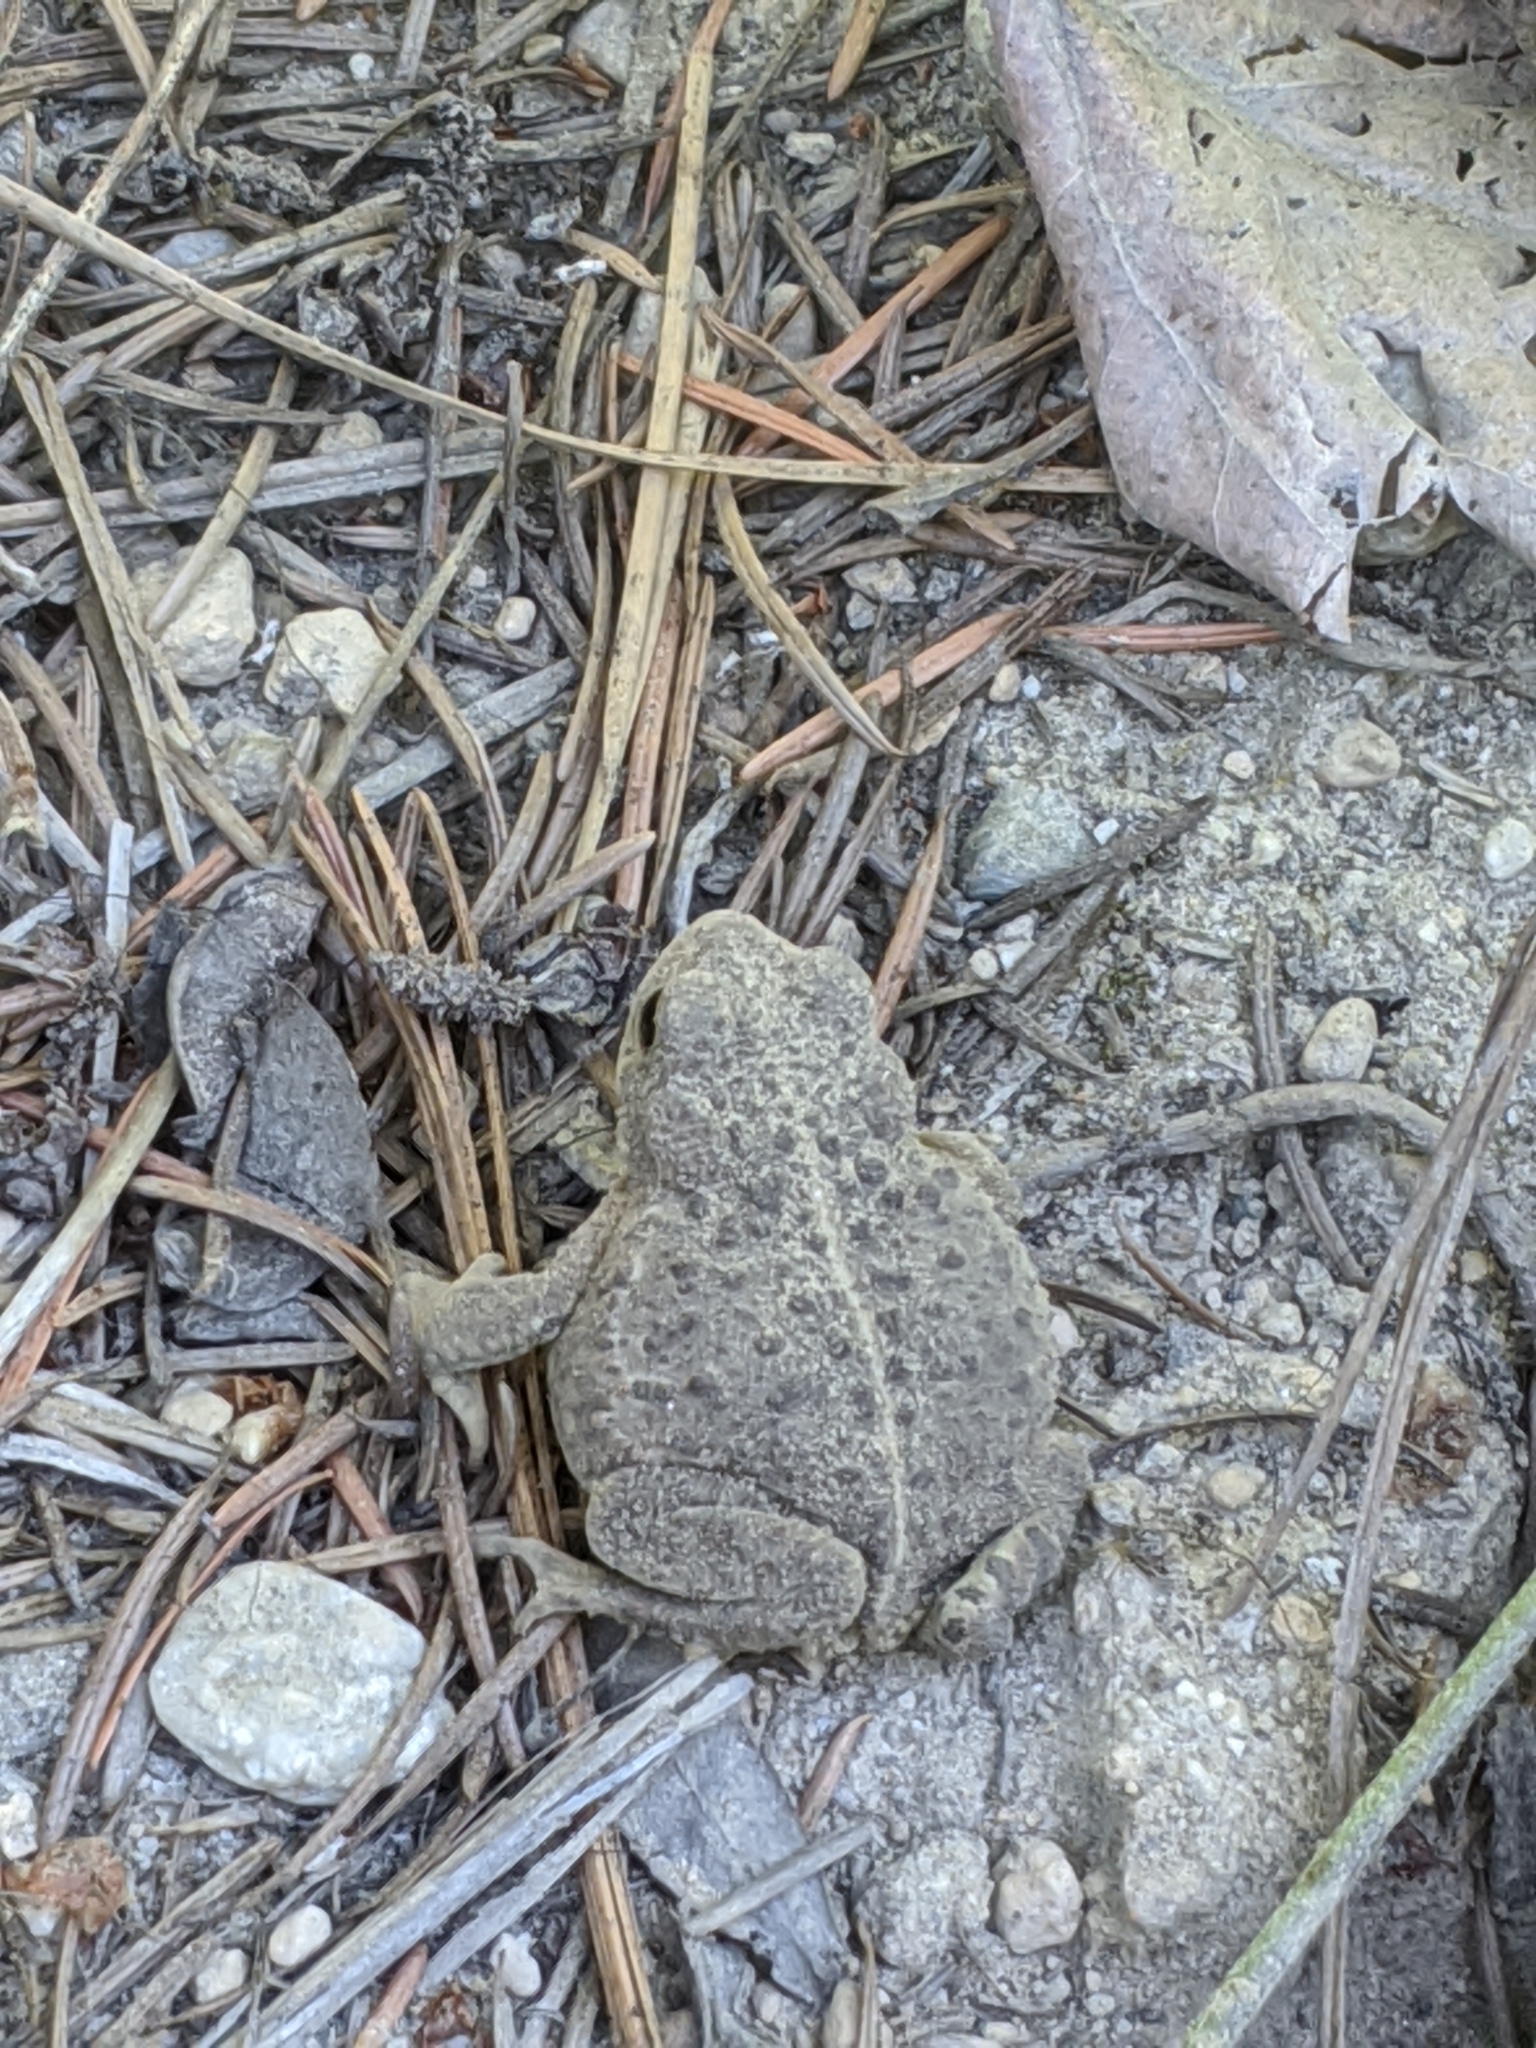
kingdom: Animalia
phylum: Chordata
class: Amphibia
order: Anura
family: Bufonidae
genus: Anaxyrus
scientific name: Anaxyrus boreas
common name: Western toad
